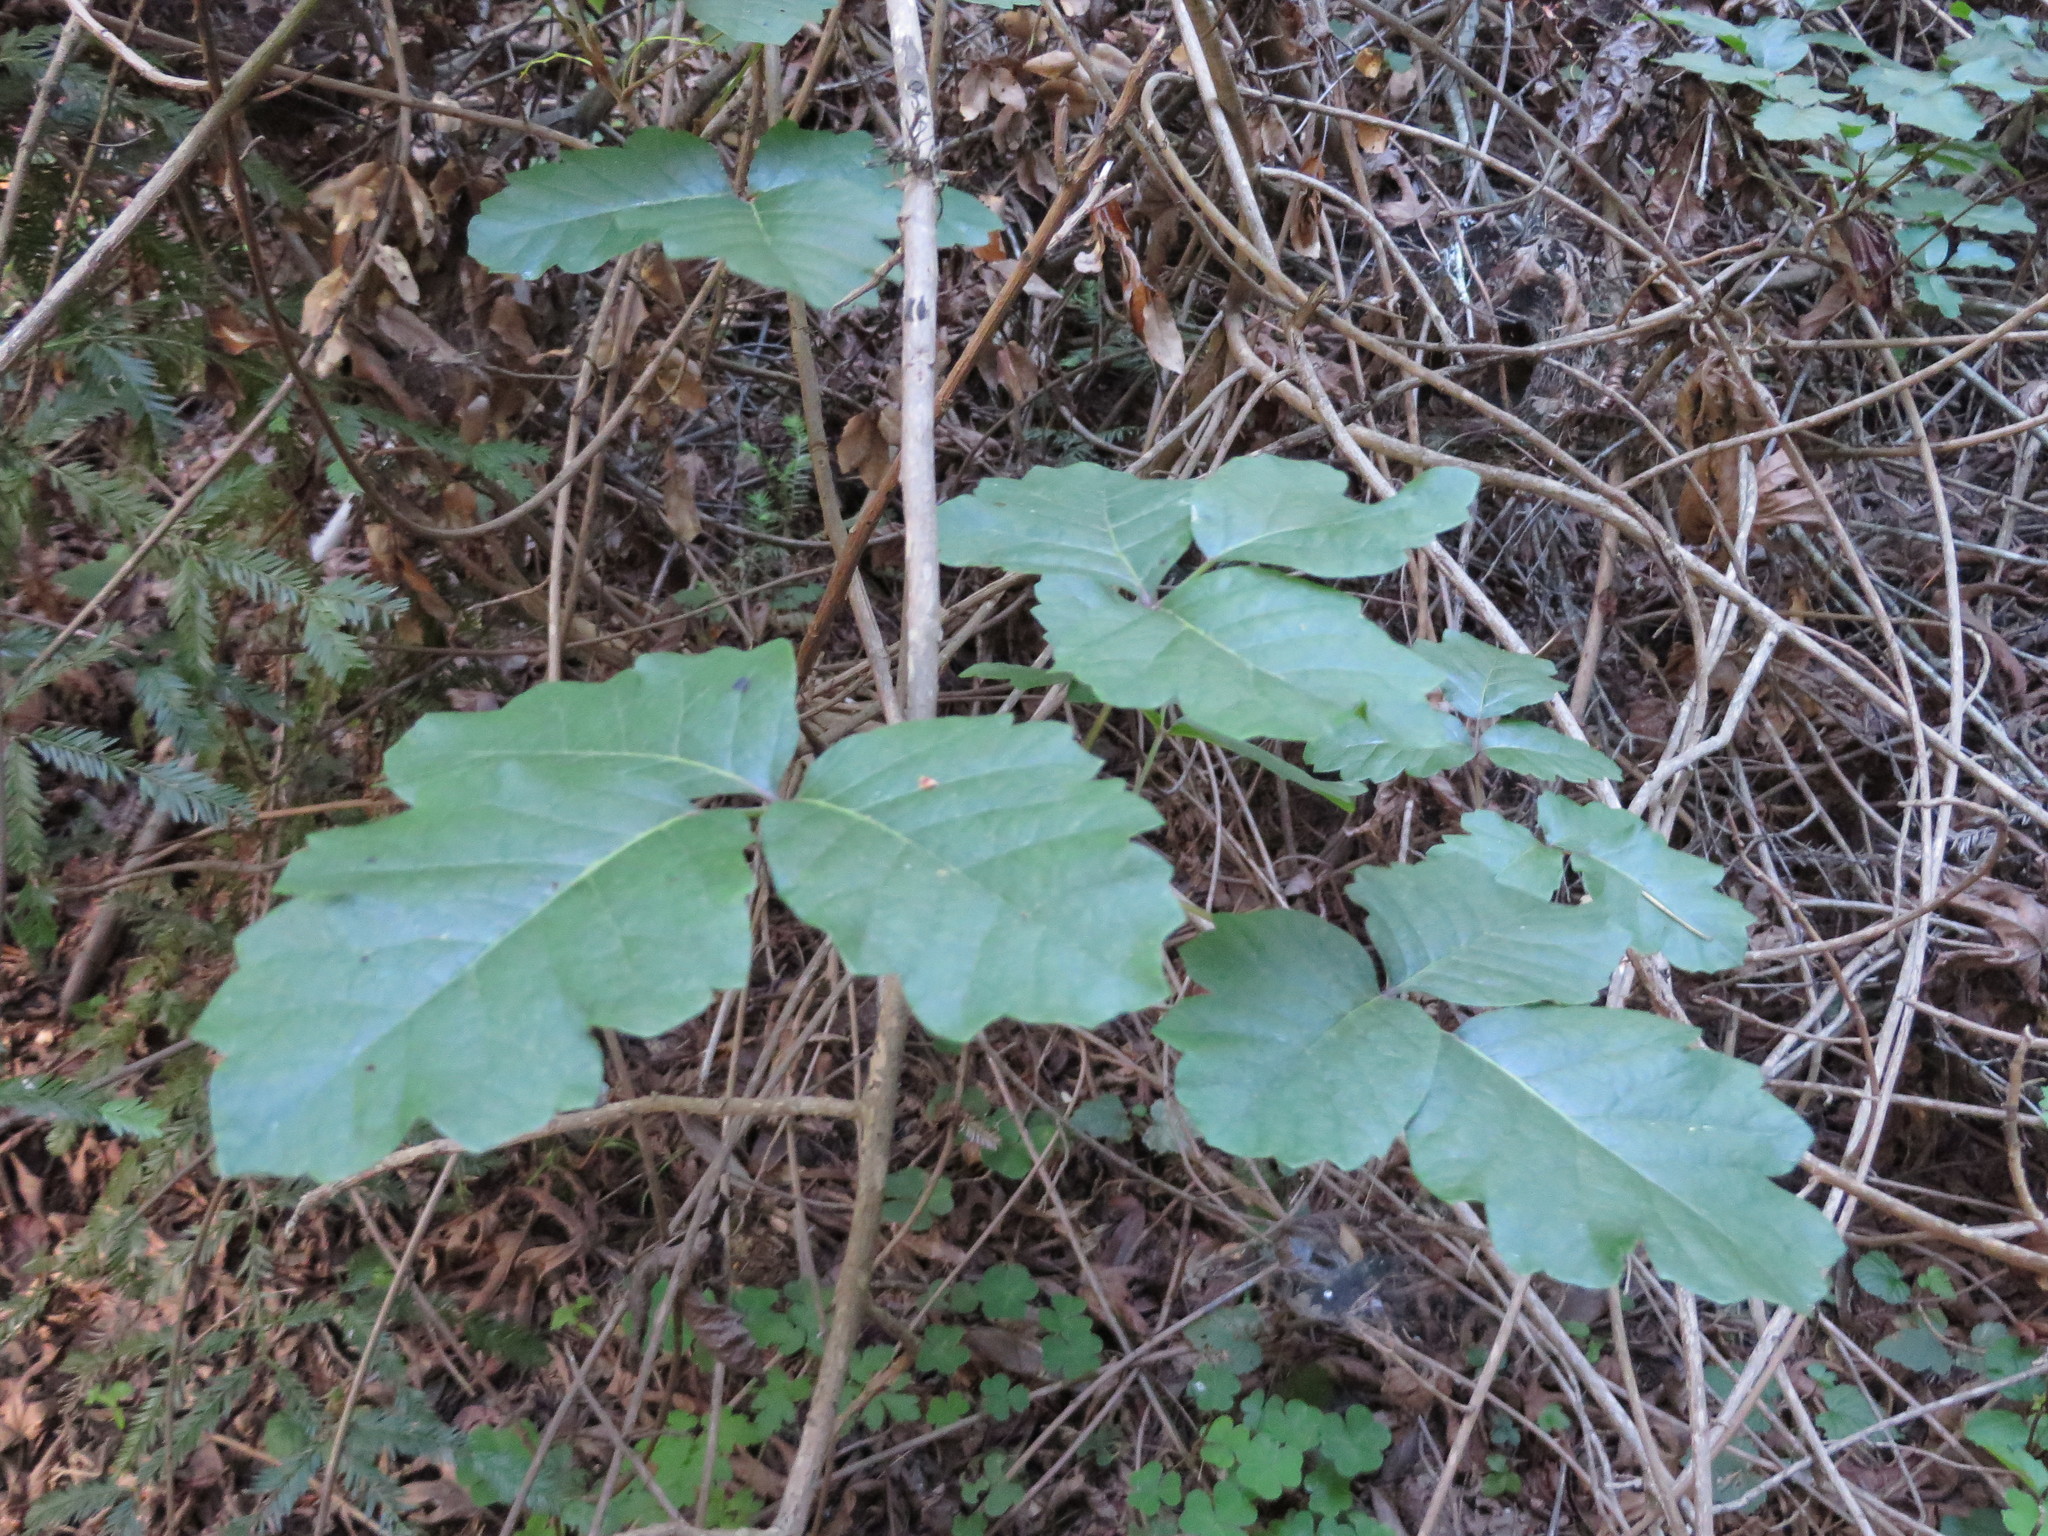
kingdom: Plantae
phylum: Tracheophyta
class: Magnoliopsida
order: Sapindales
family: Anacardiaceae
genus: Toxicodendron
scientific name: Toxicodendron diversilobum
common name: Pacific poison-oak
